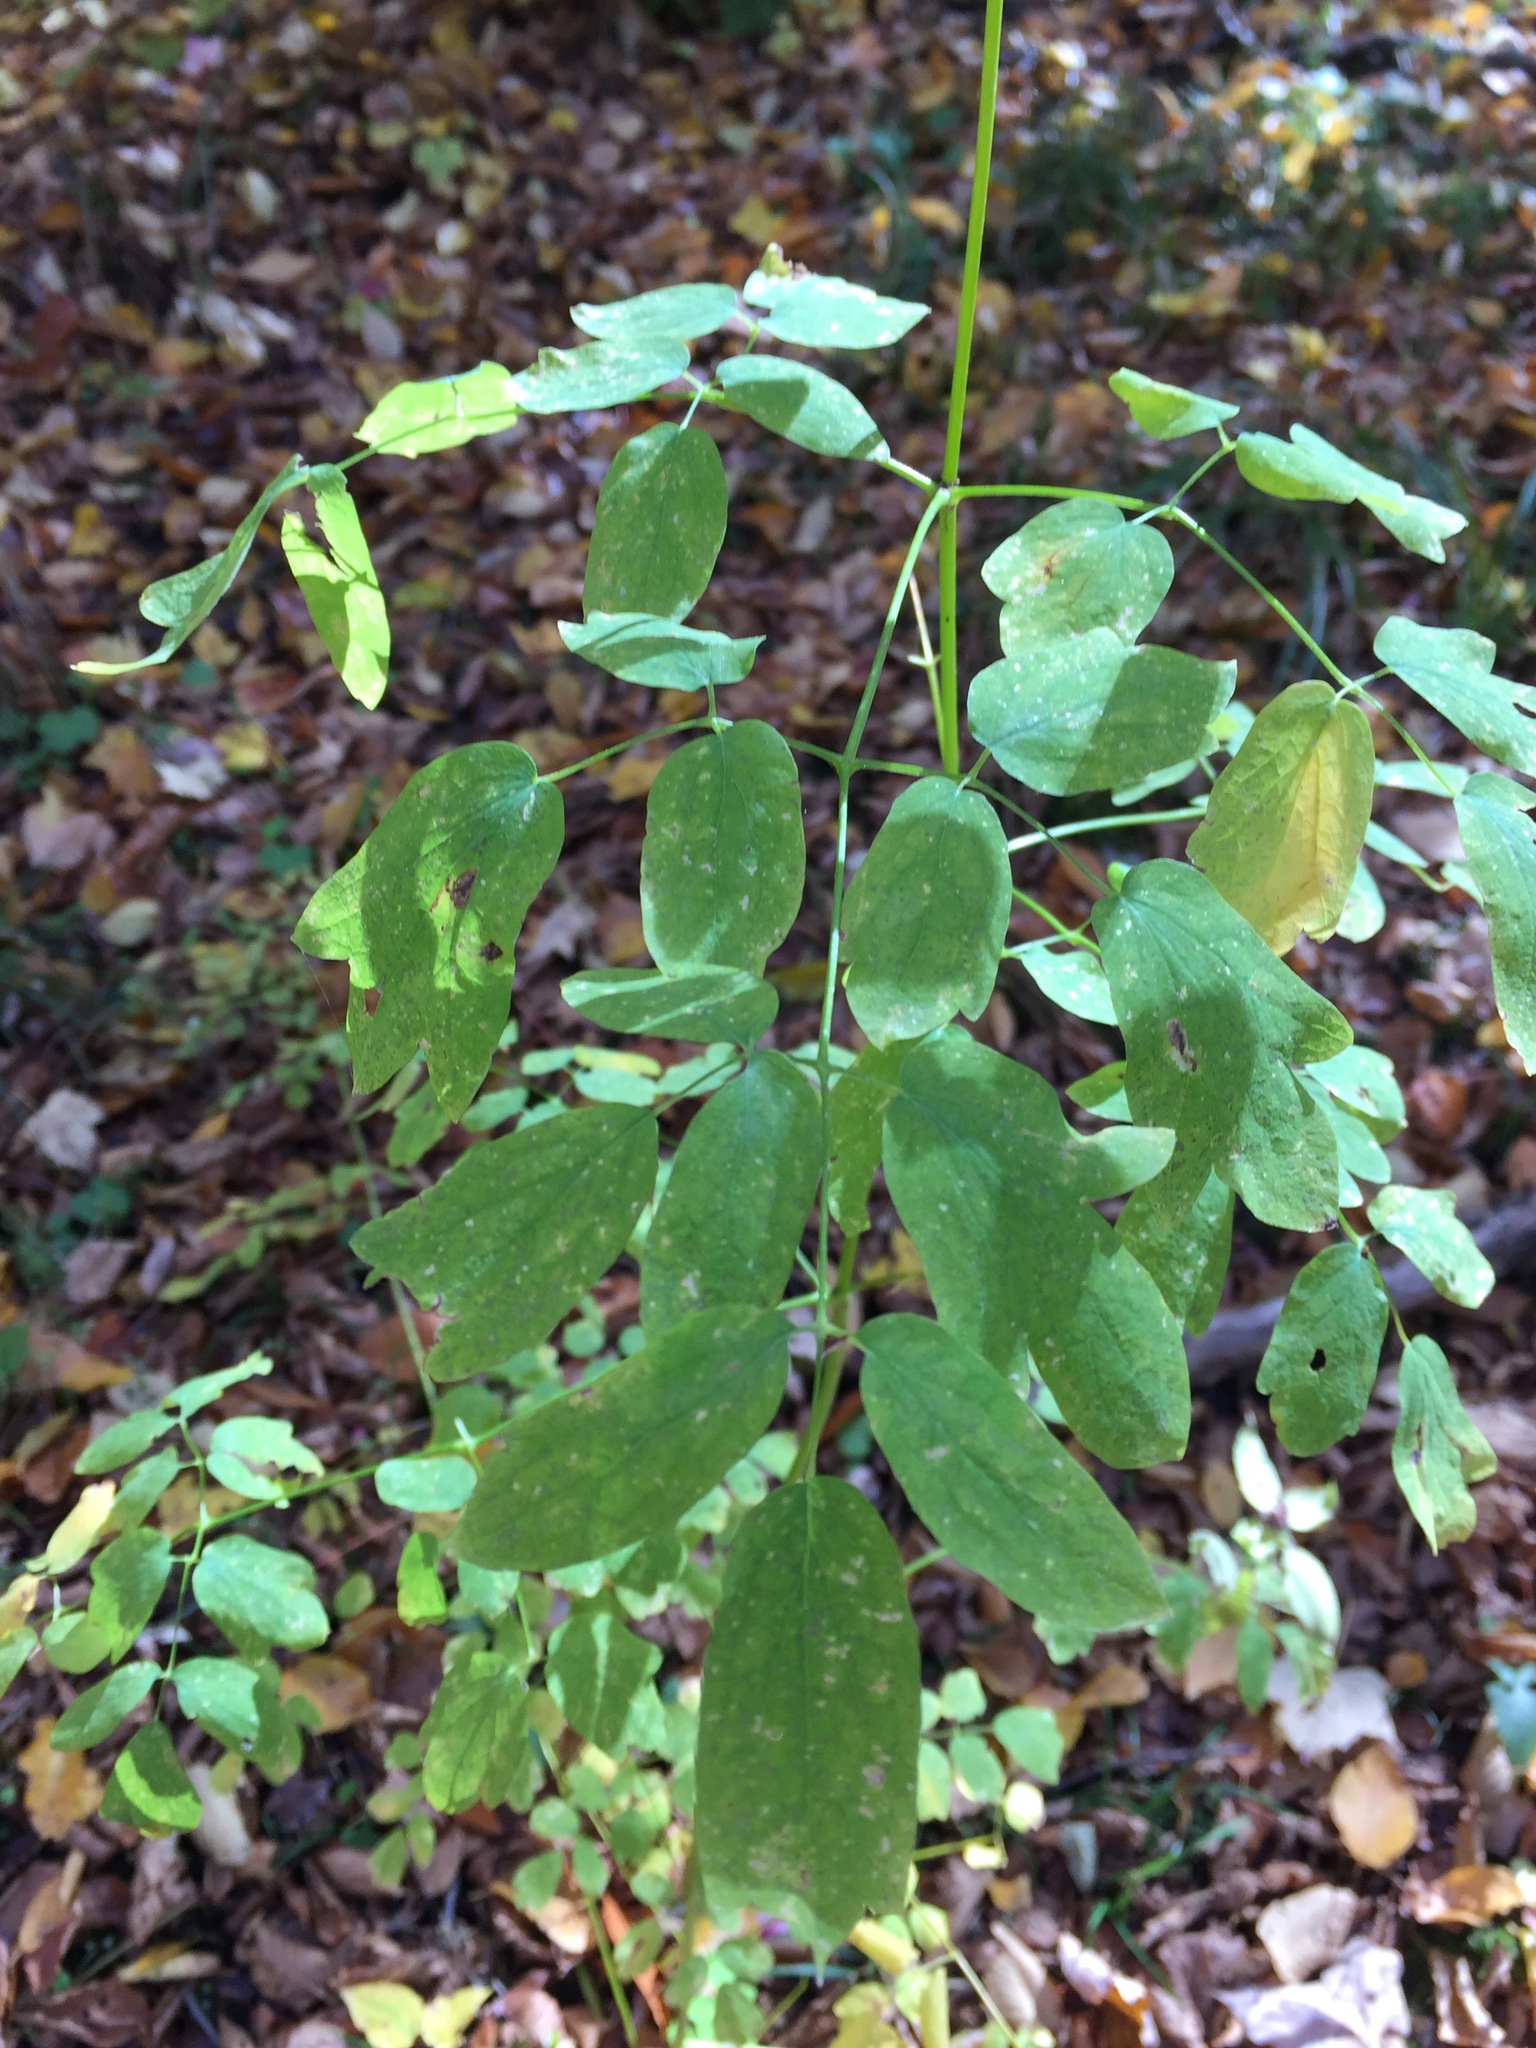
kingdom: Plantae
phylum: Tracheophyta
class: Magnoliopsida
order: Ranunculales
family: Ranunculaceae
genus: Thalictrum
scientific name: Thalictrum pubescens
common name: King-of-the-meadow
